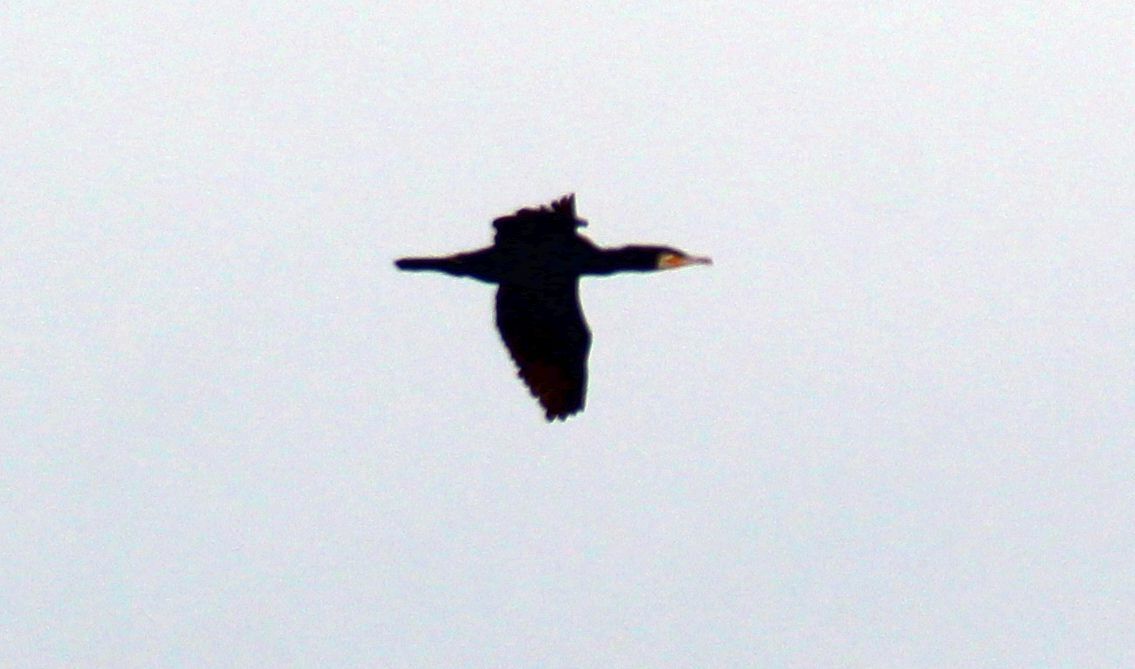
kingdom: Animalia
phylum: Chordata
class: Aves
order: Suliformes
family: Phalacrocoracidae
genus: Phalacrocorax
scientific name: Phalacrocorax carbo
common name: Great cormorant
